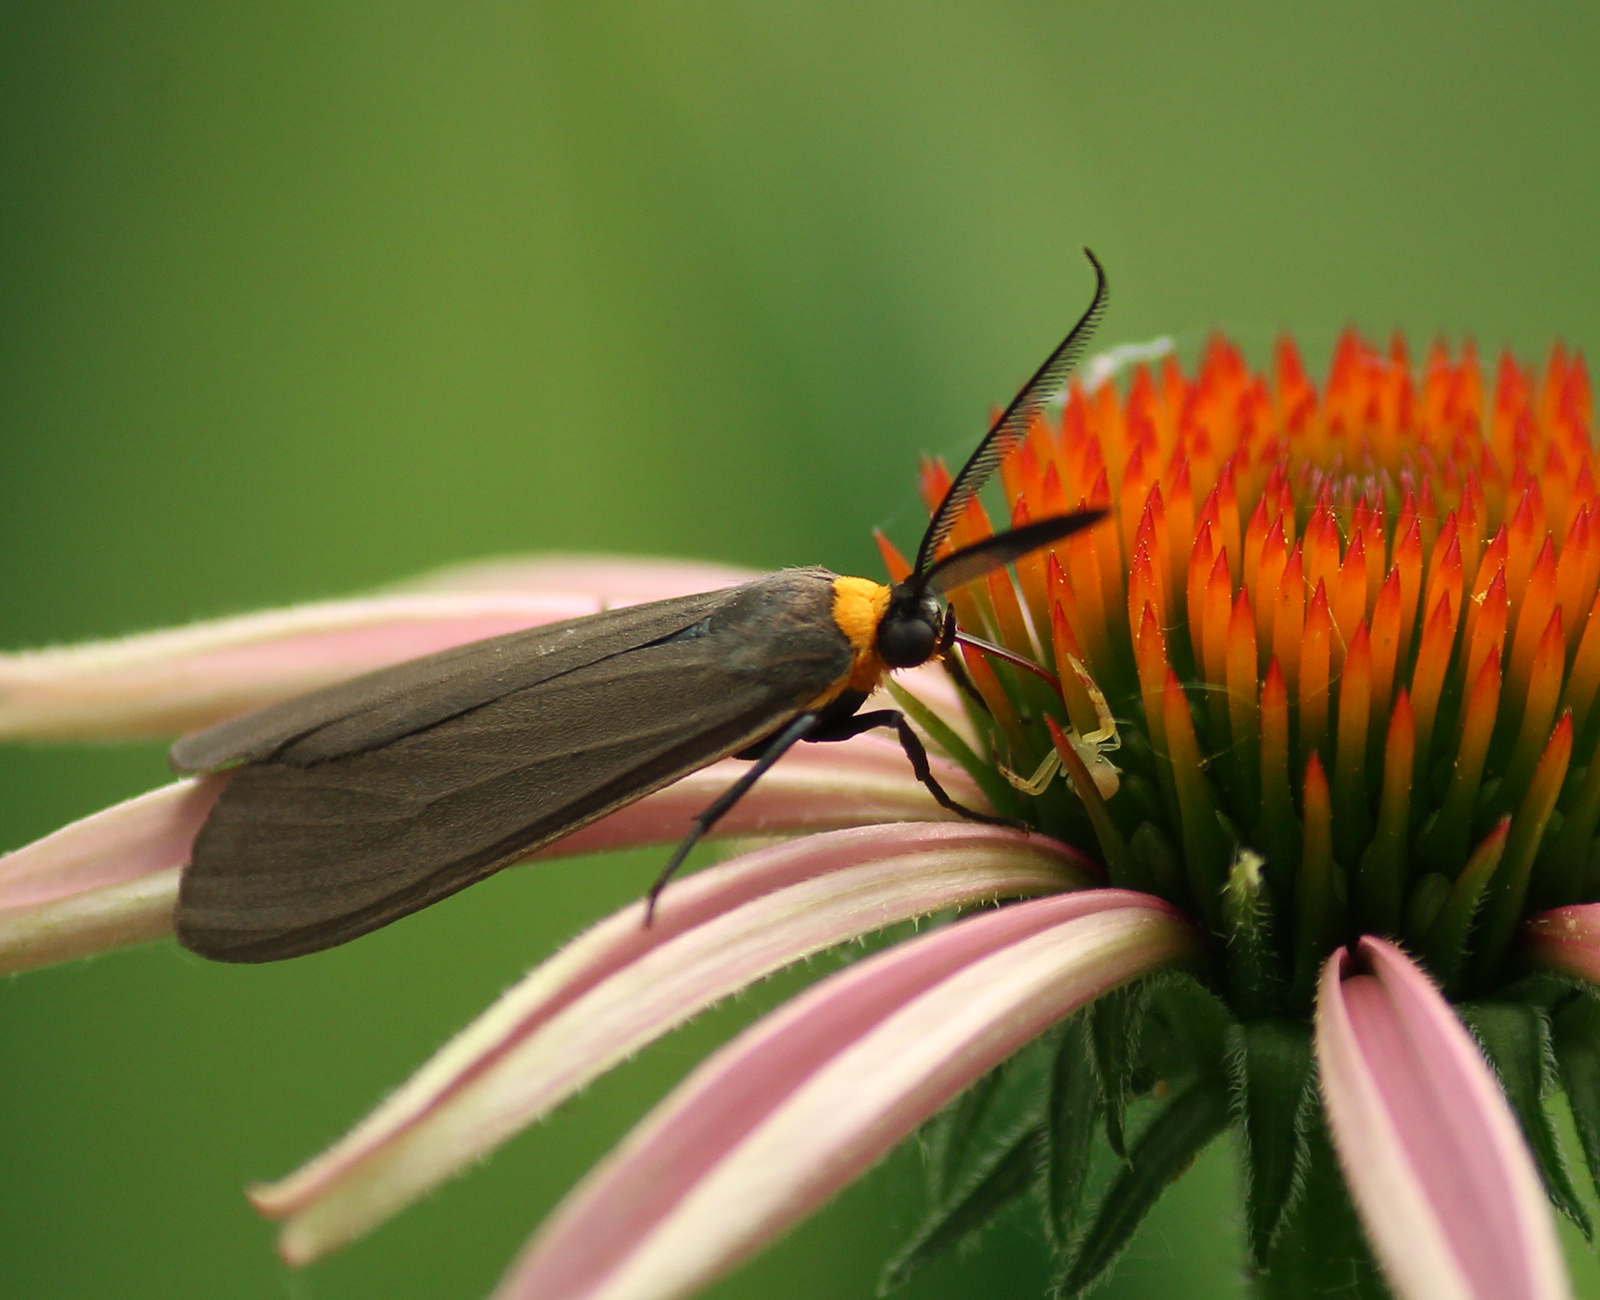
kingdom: Animalia
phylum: Arthropoda
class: Insecta
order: Lepidoptera
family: Erebidae
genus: Cisseps
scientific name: Cisseps fulvicollis
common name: Yellow-collared scape moth
